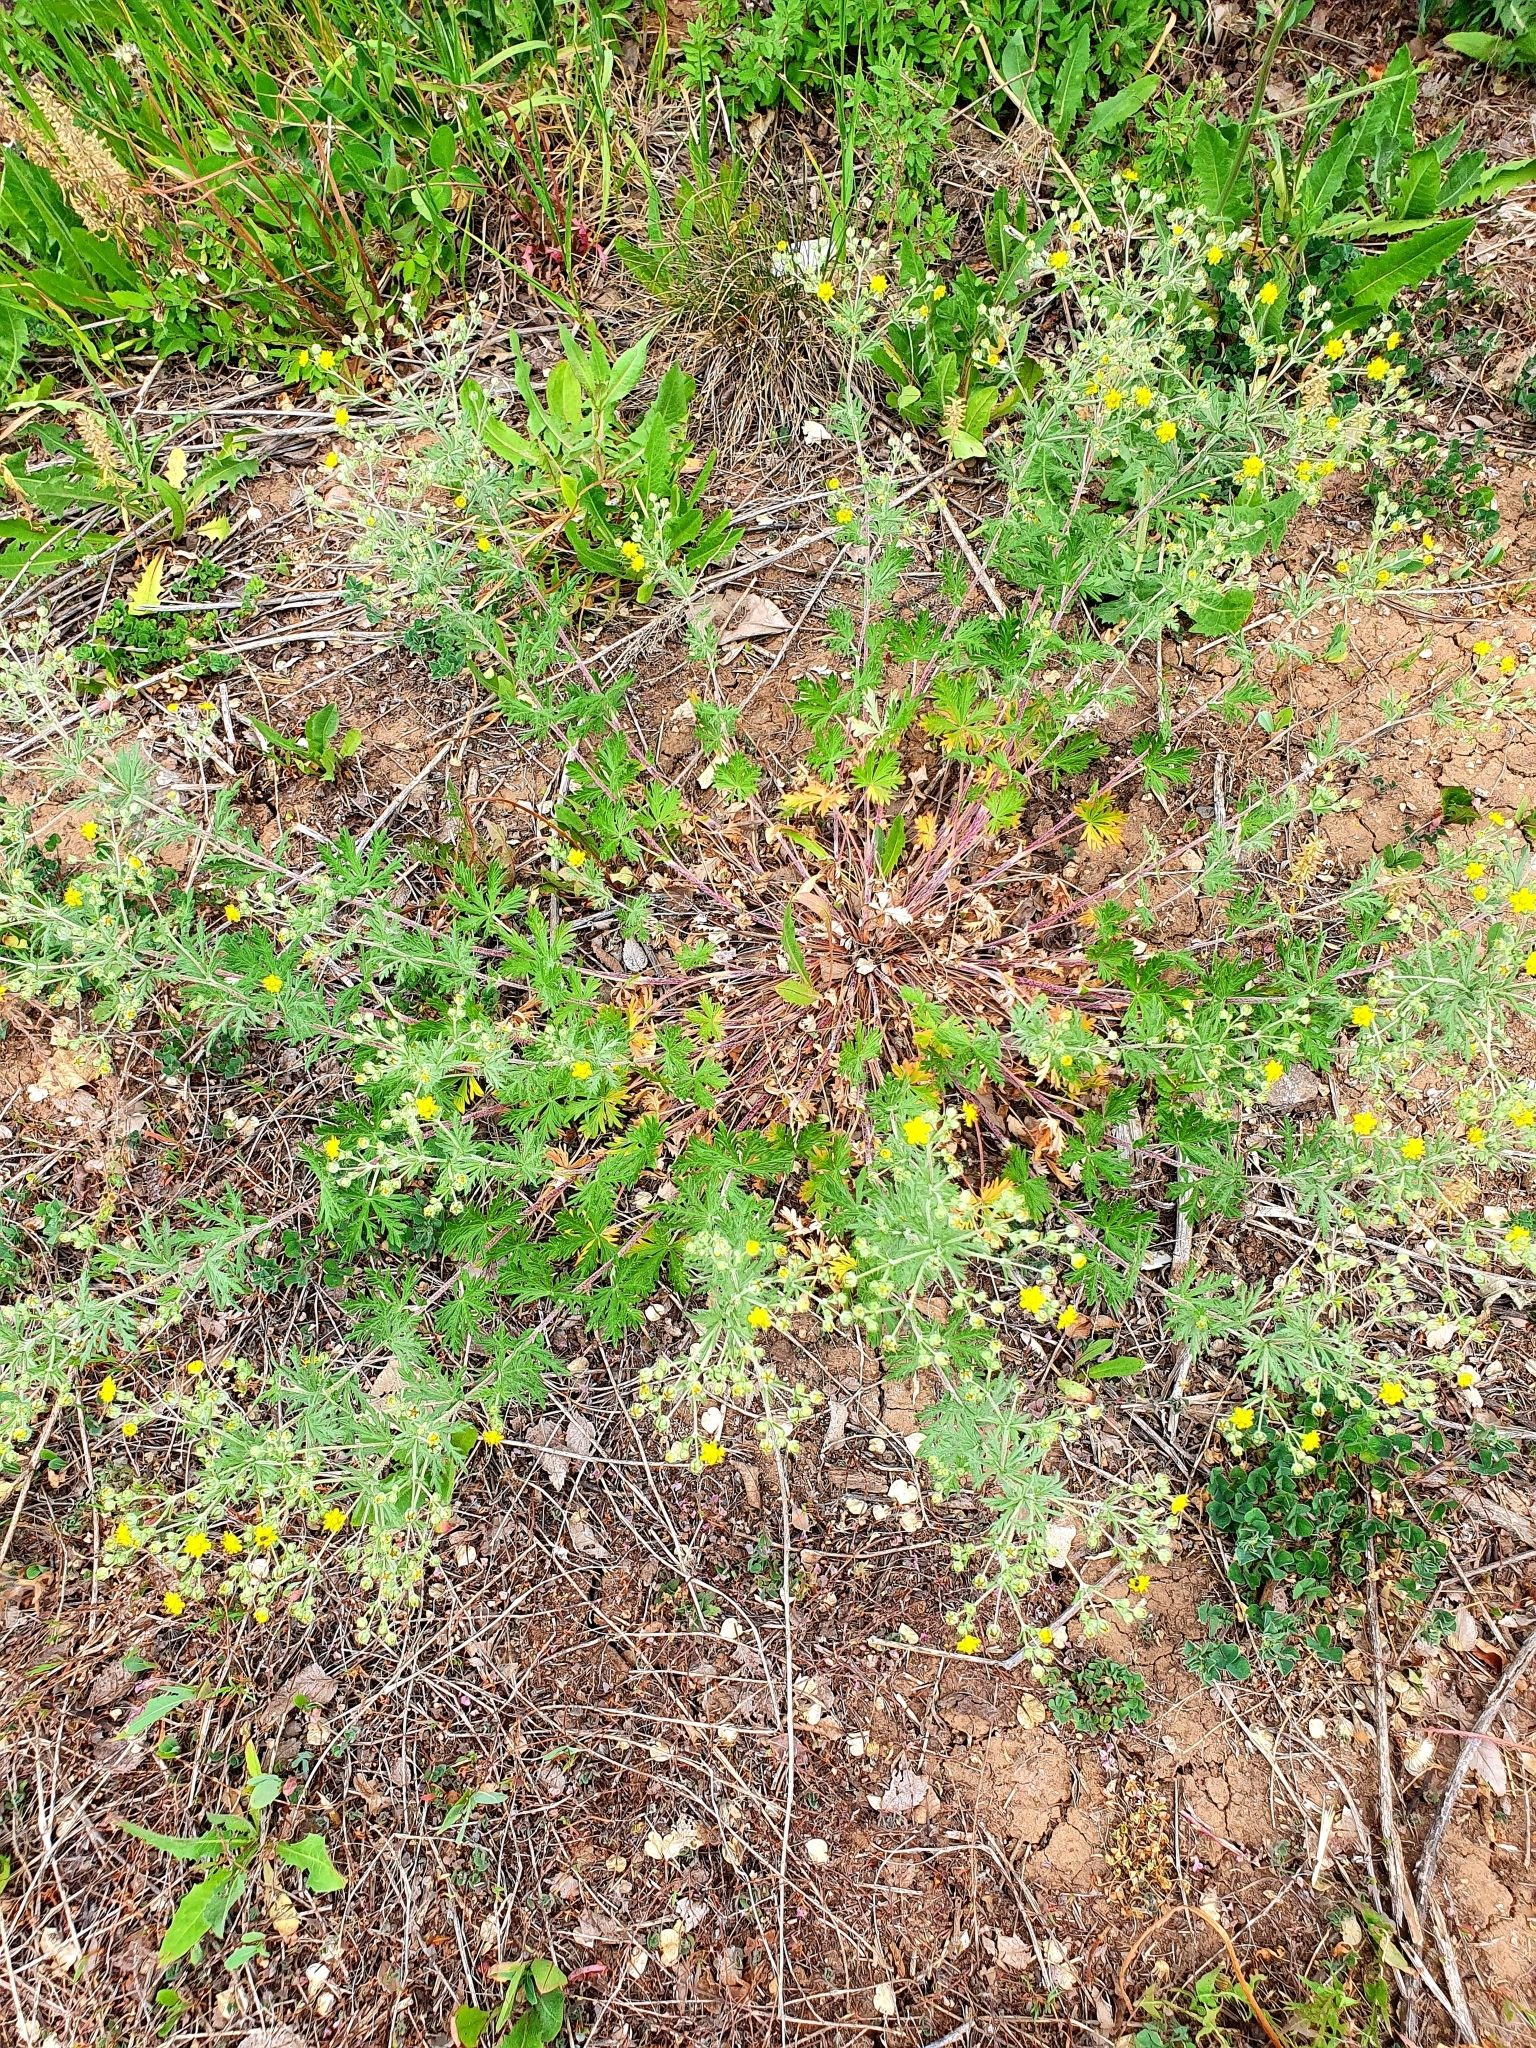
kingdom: Plantae
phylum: Tracheophyta
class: Magnoliopsida
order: Rosales
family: Rosaceae
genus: Potentilla
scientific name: Potentilla argentea
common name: Hoary cinquefoil
